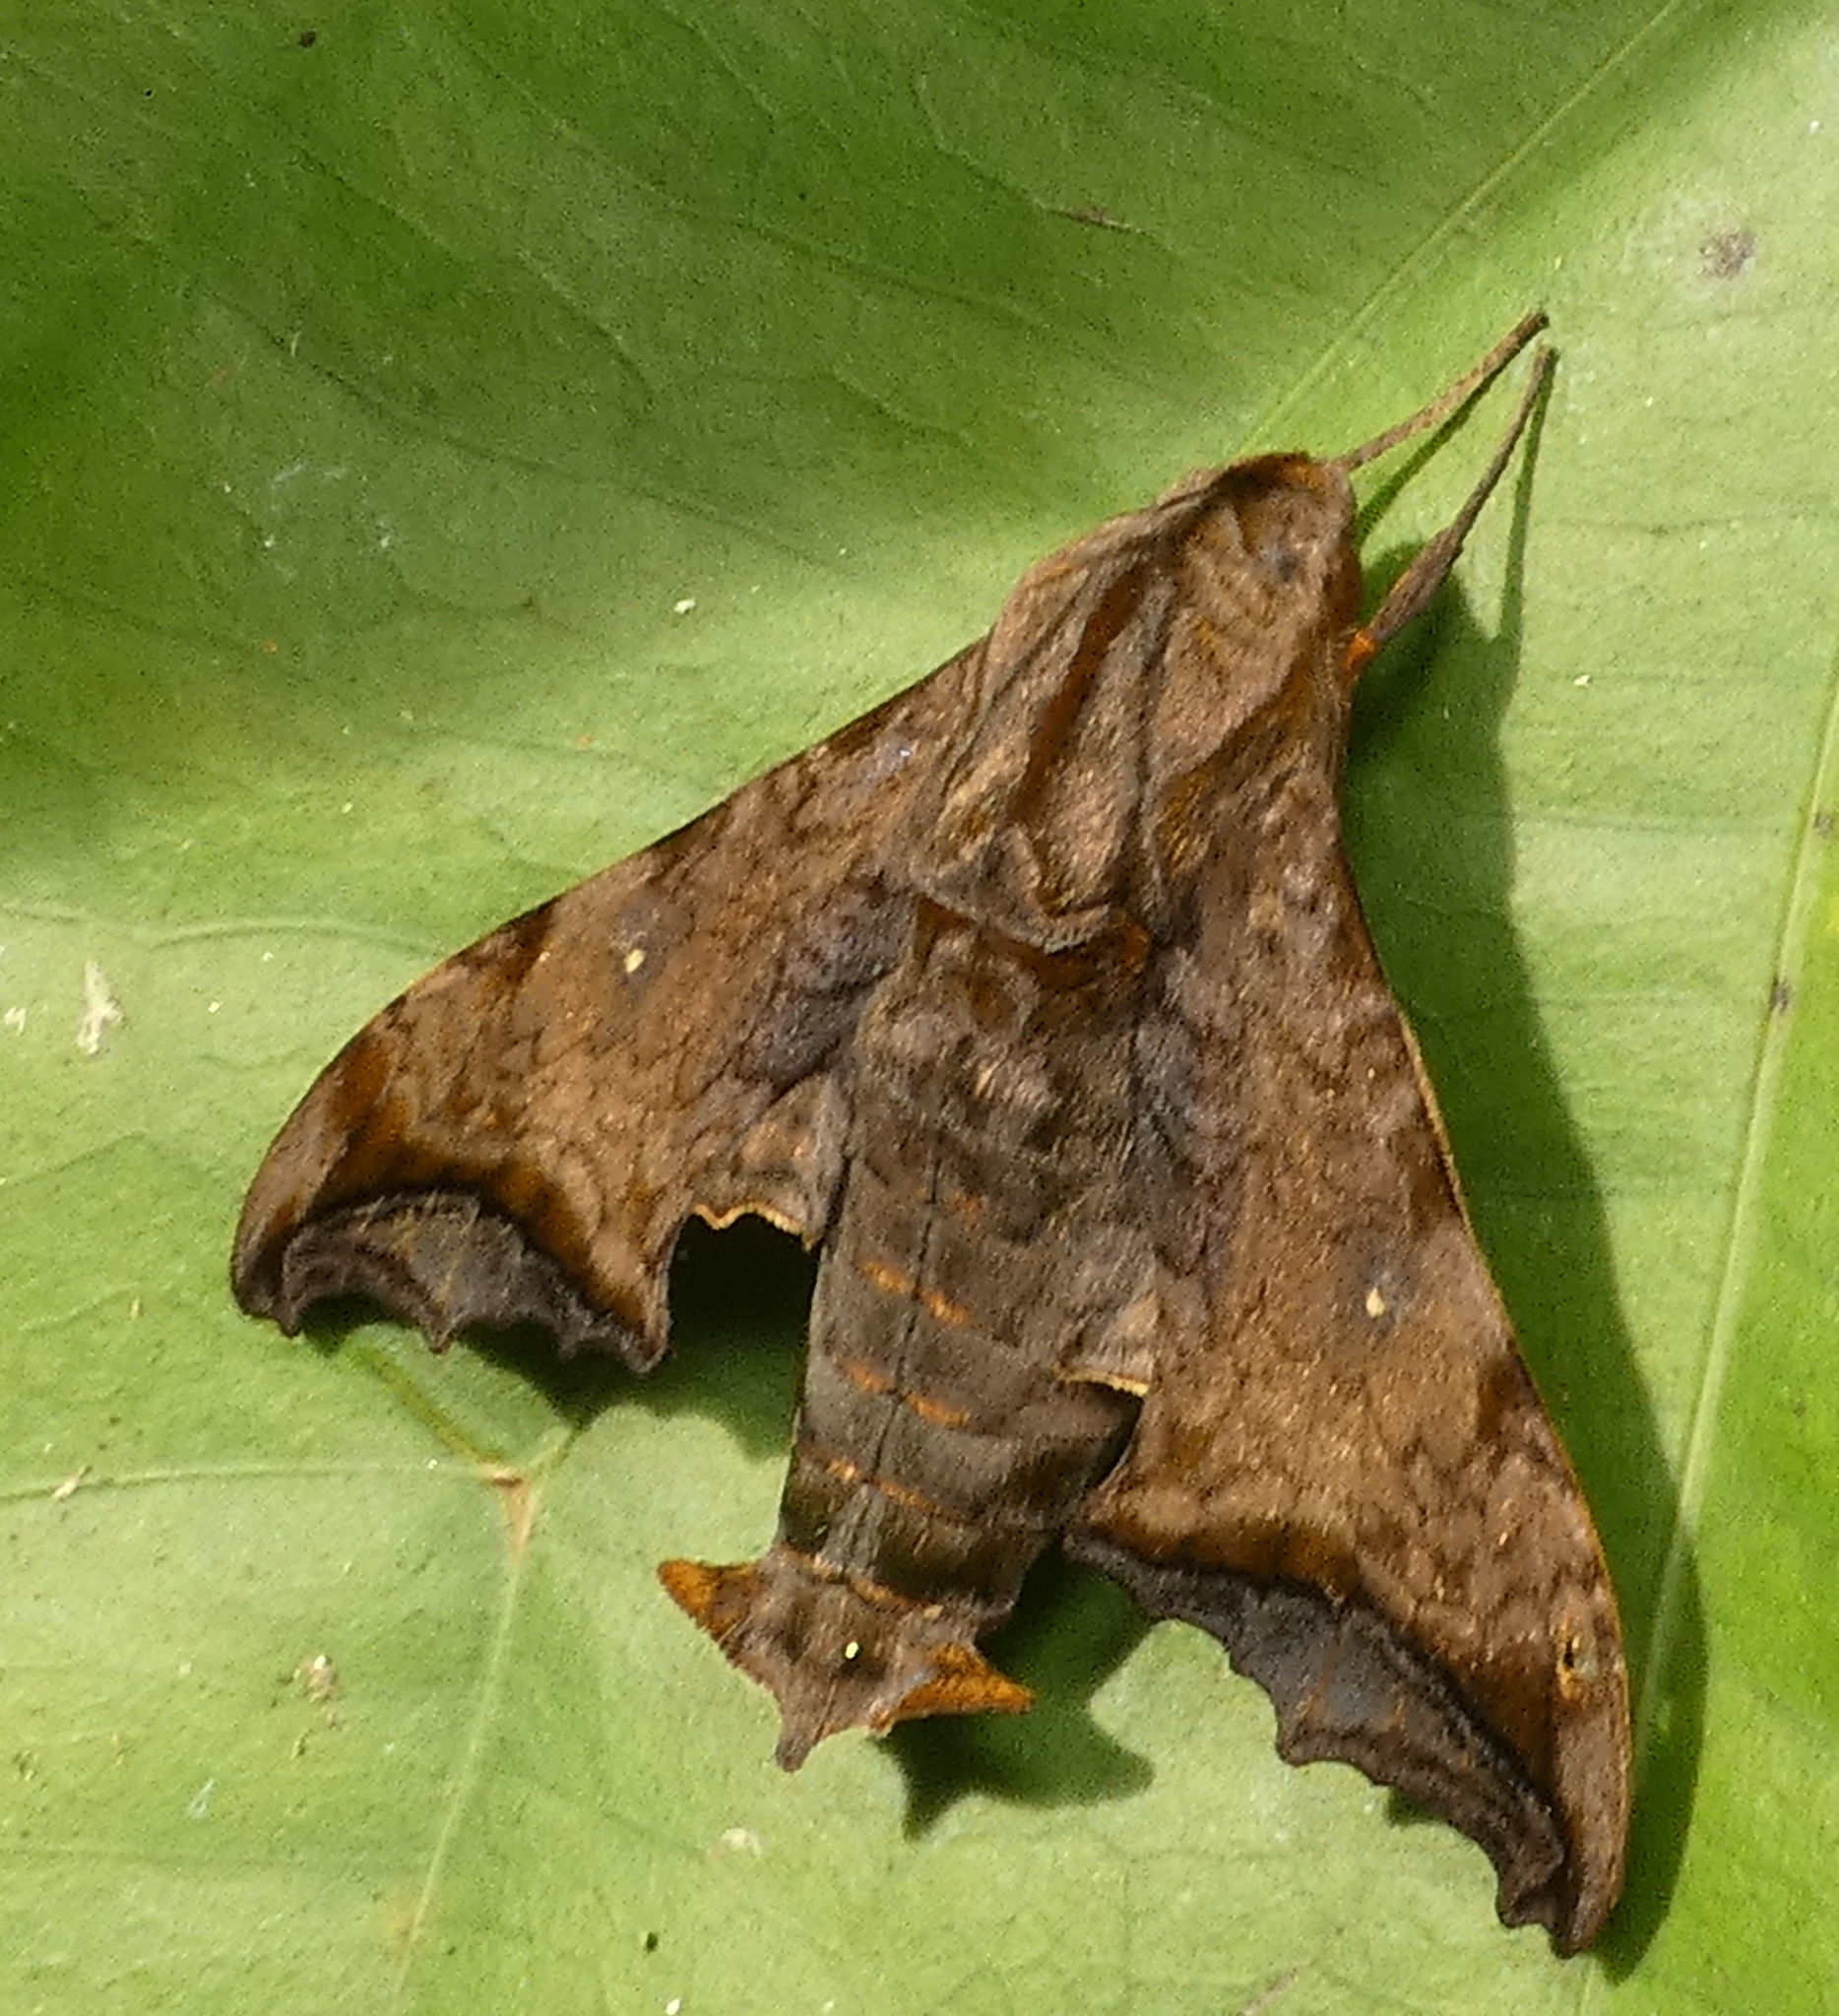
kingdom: Animalia
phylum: Arthropoda
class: Insecta
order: Lepidoptera
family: Sphingidae
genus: Nyceryx
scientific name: Nyceryx riscus
